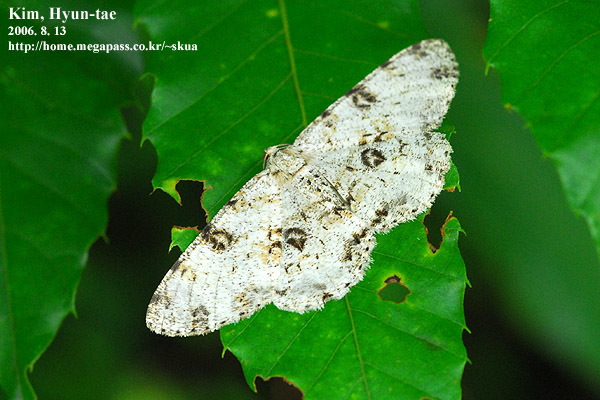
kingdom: Animalia
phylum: Arthropoda
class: Insecta
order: Lepidoptera
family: Geometridae
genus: Ophthalmitis
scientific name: Ophthalmitis albosignaria
